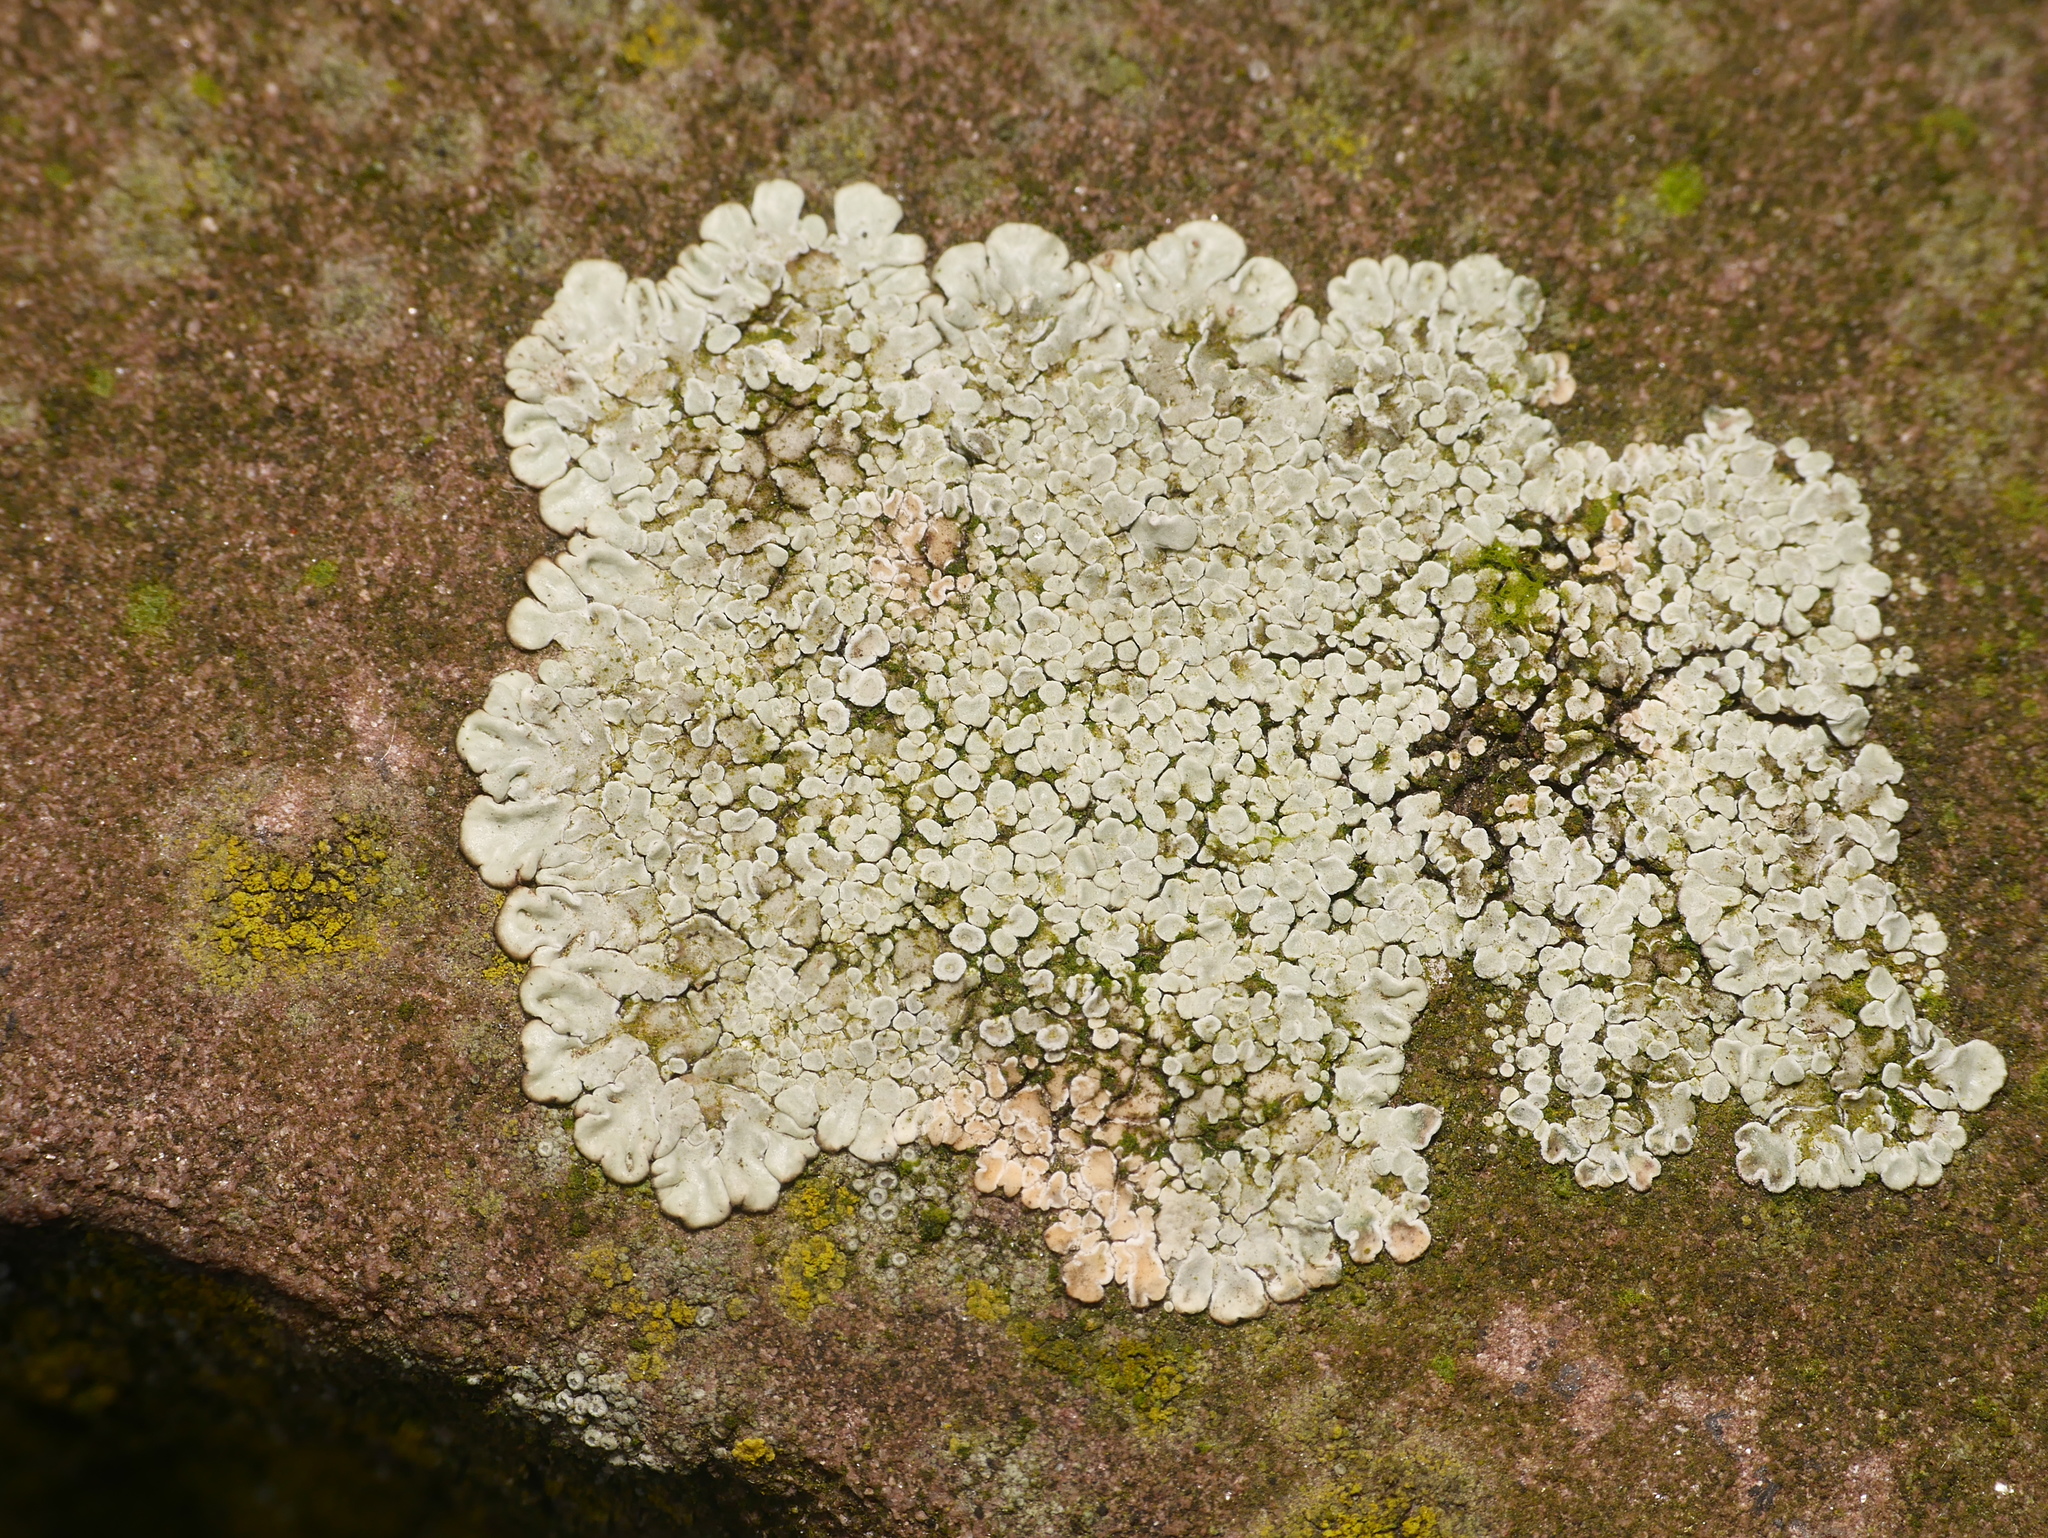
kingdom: Fungi
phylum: Ascomycota
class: Lecanoromycetes
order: Lecanorales
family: Lecanoraceae
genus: Protoparmeliopsis
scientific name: Protoparmeliopsis muralis
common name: Stonewall rim lichen
